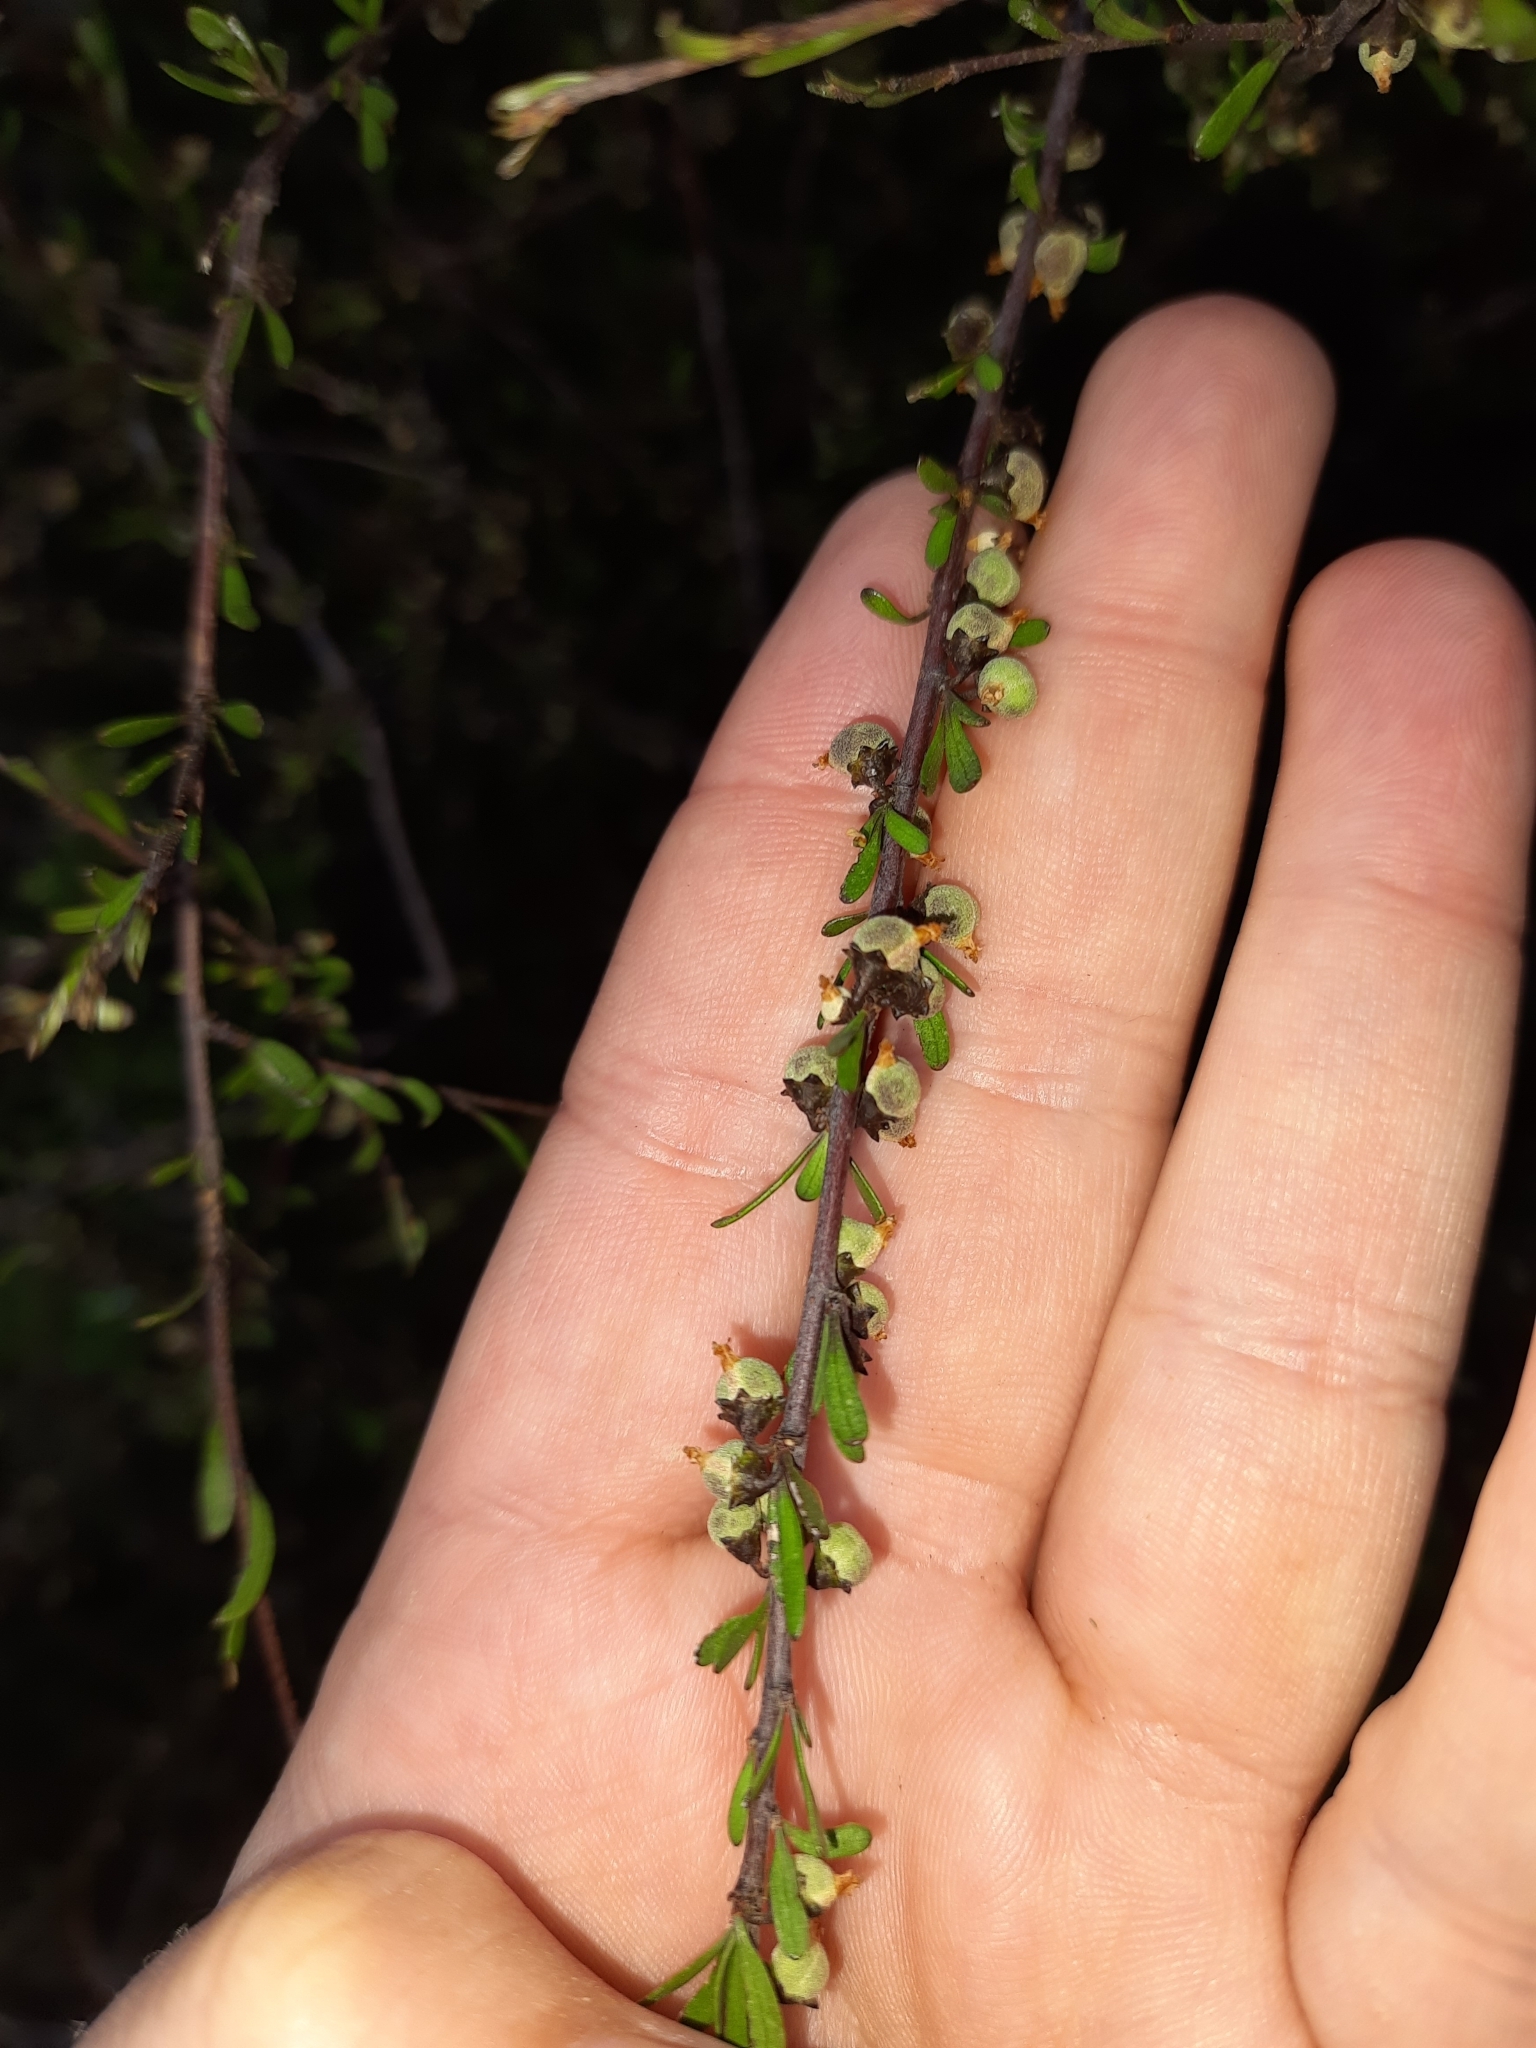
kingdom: Plantae
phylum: Tracheophyta
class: Magnoliopsida
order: Malvales
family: Malvaceae
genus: Plagianthus
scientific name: Plagianthus divaricatus
